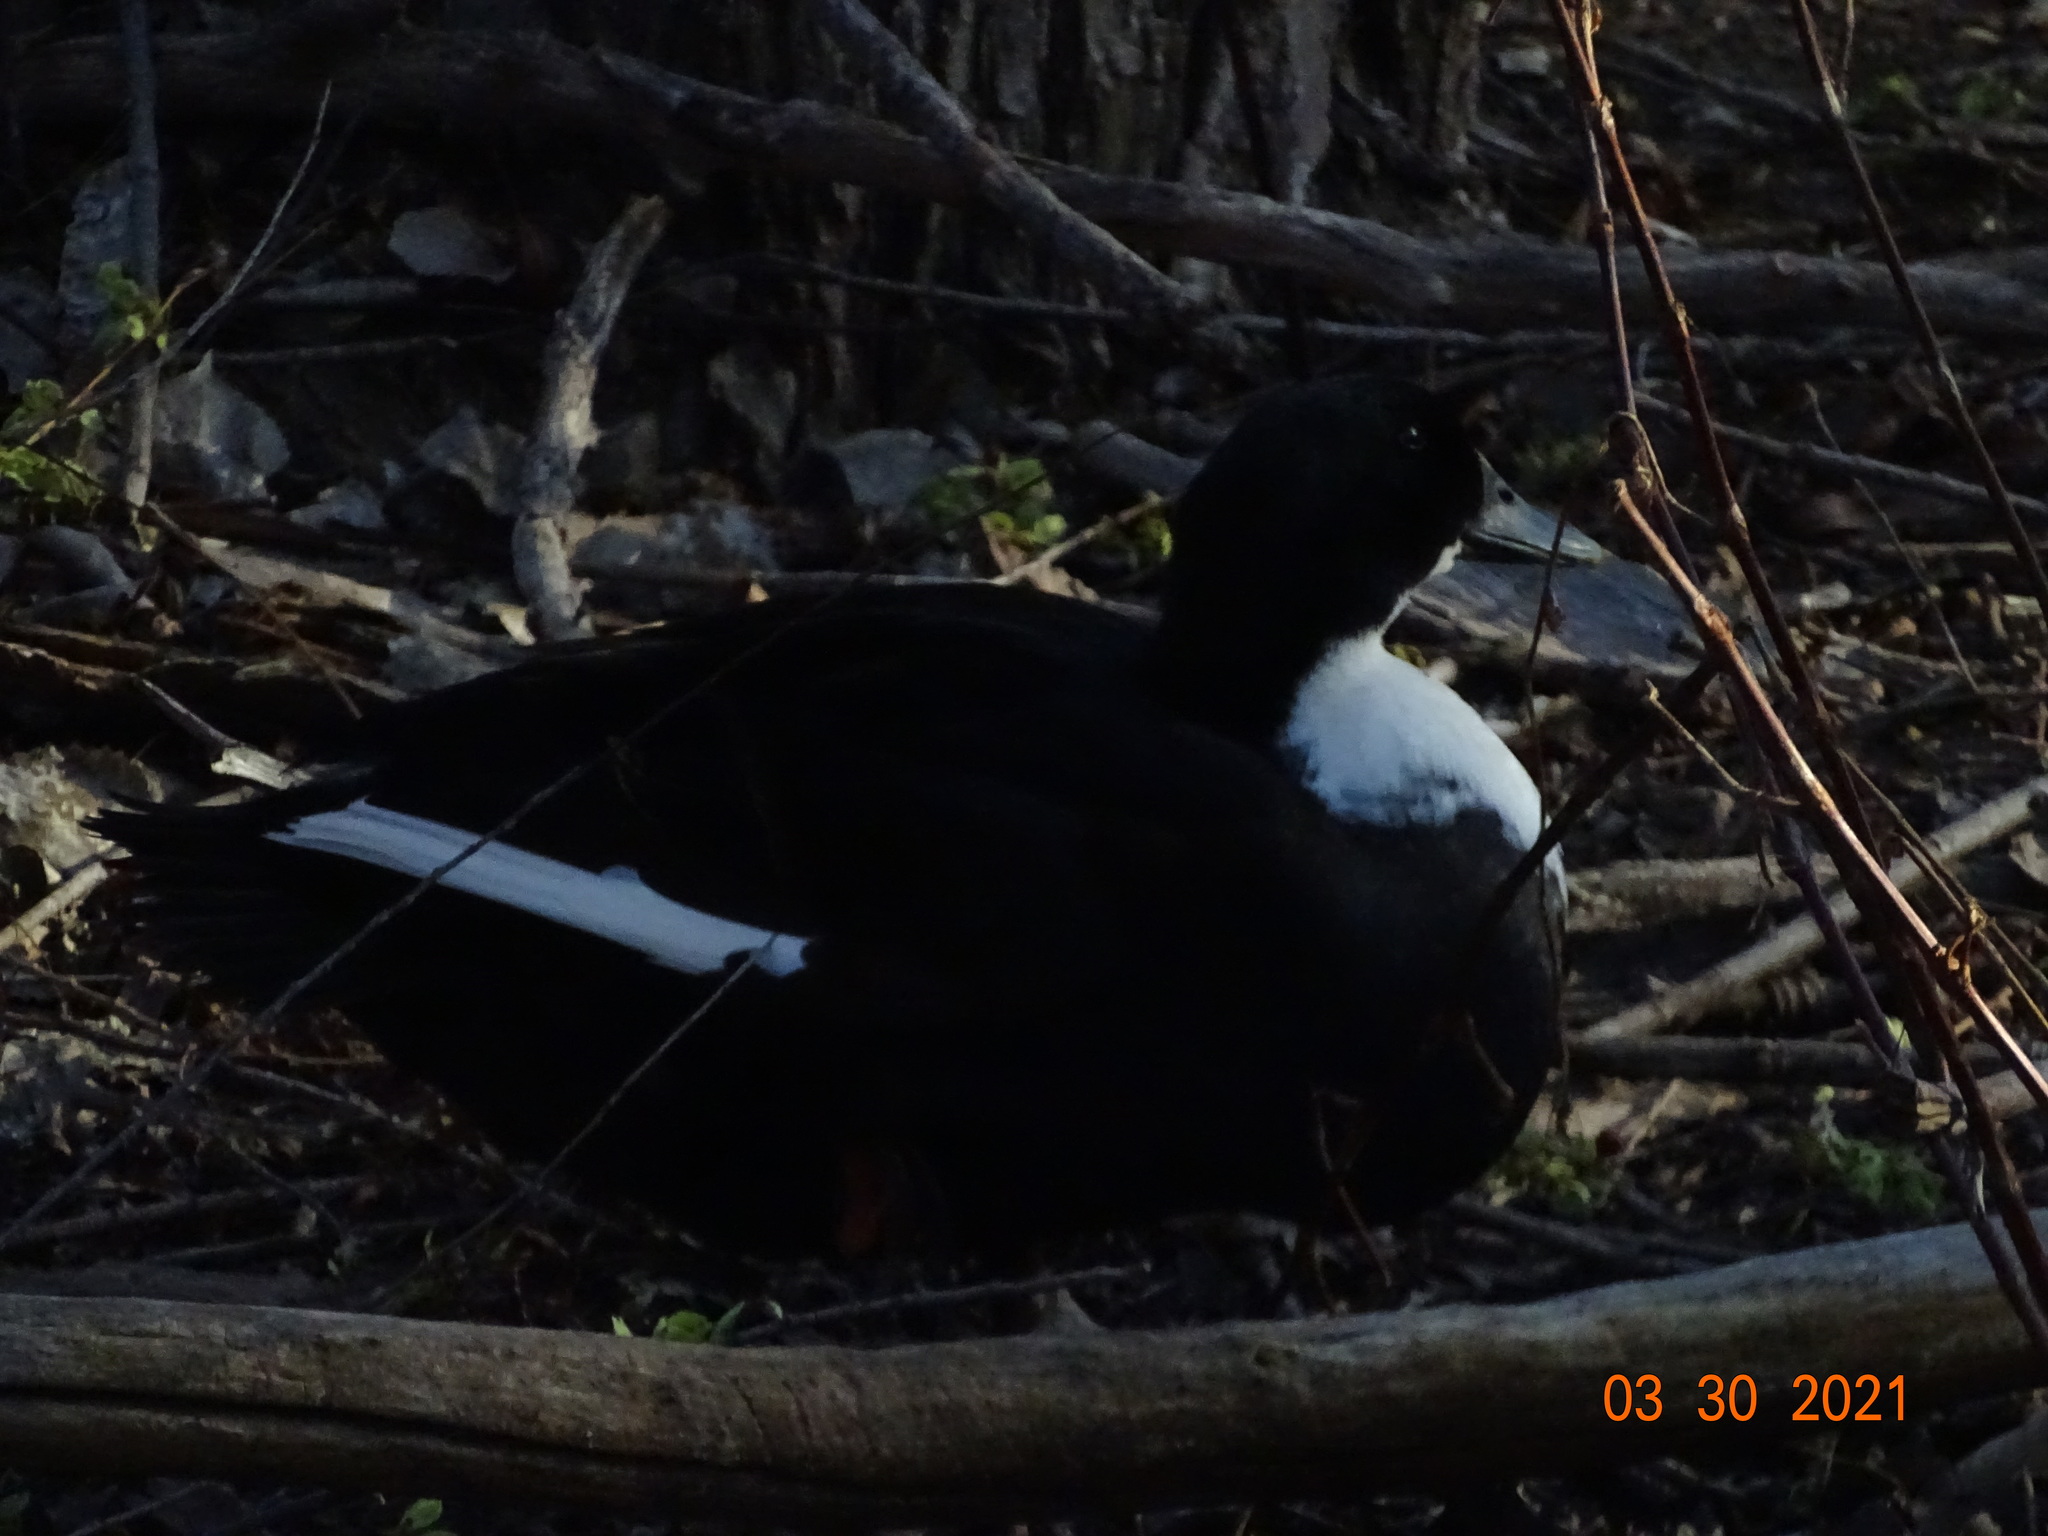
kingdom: Animalia
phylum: Chordata
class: Aves
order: Anseriformes
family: Anatidae
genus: Anas
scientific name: Anas platyrhynchos
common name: Mallard
